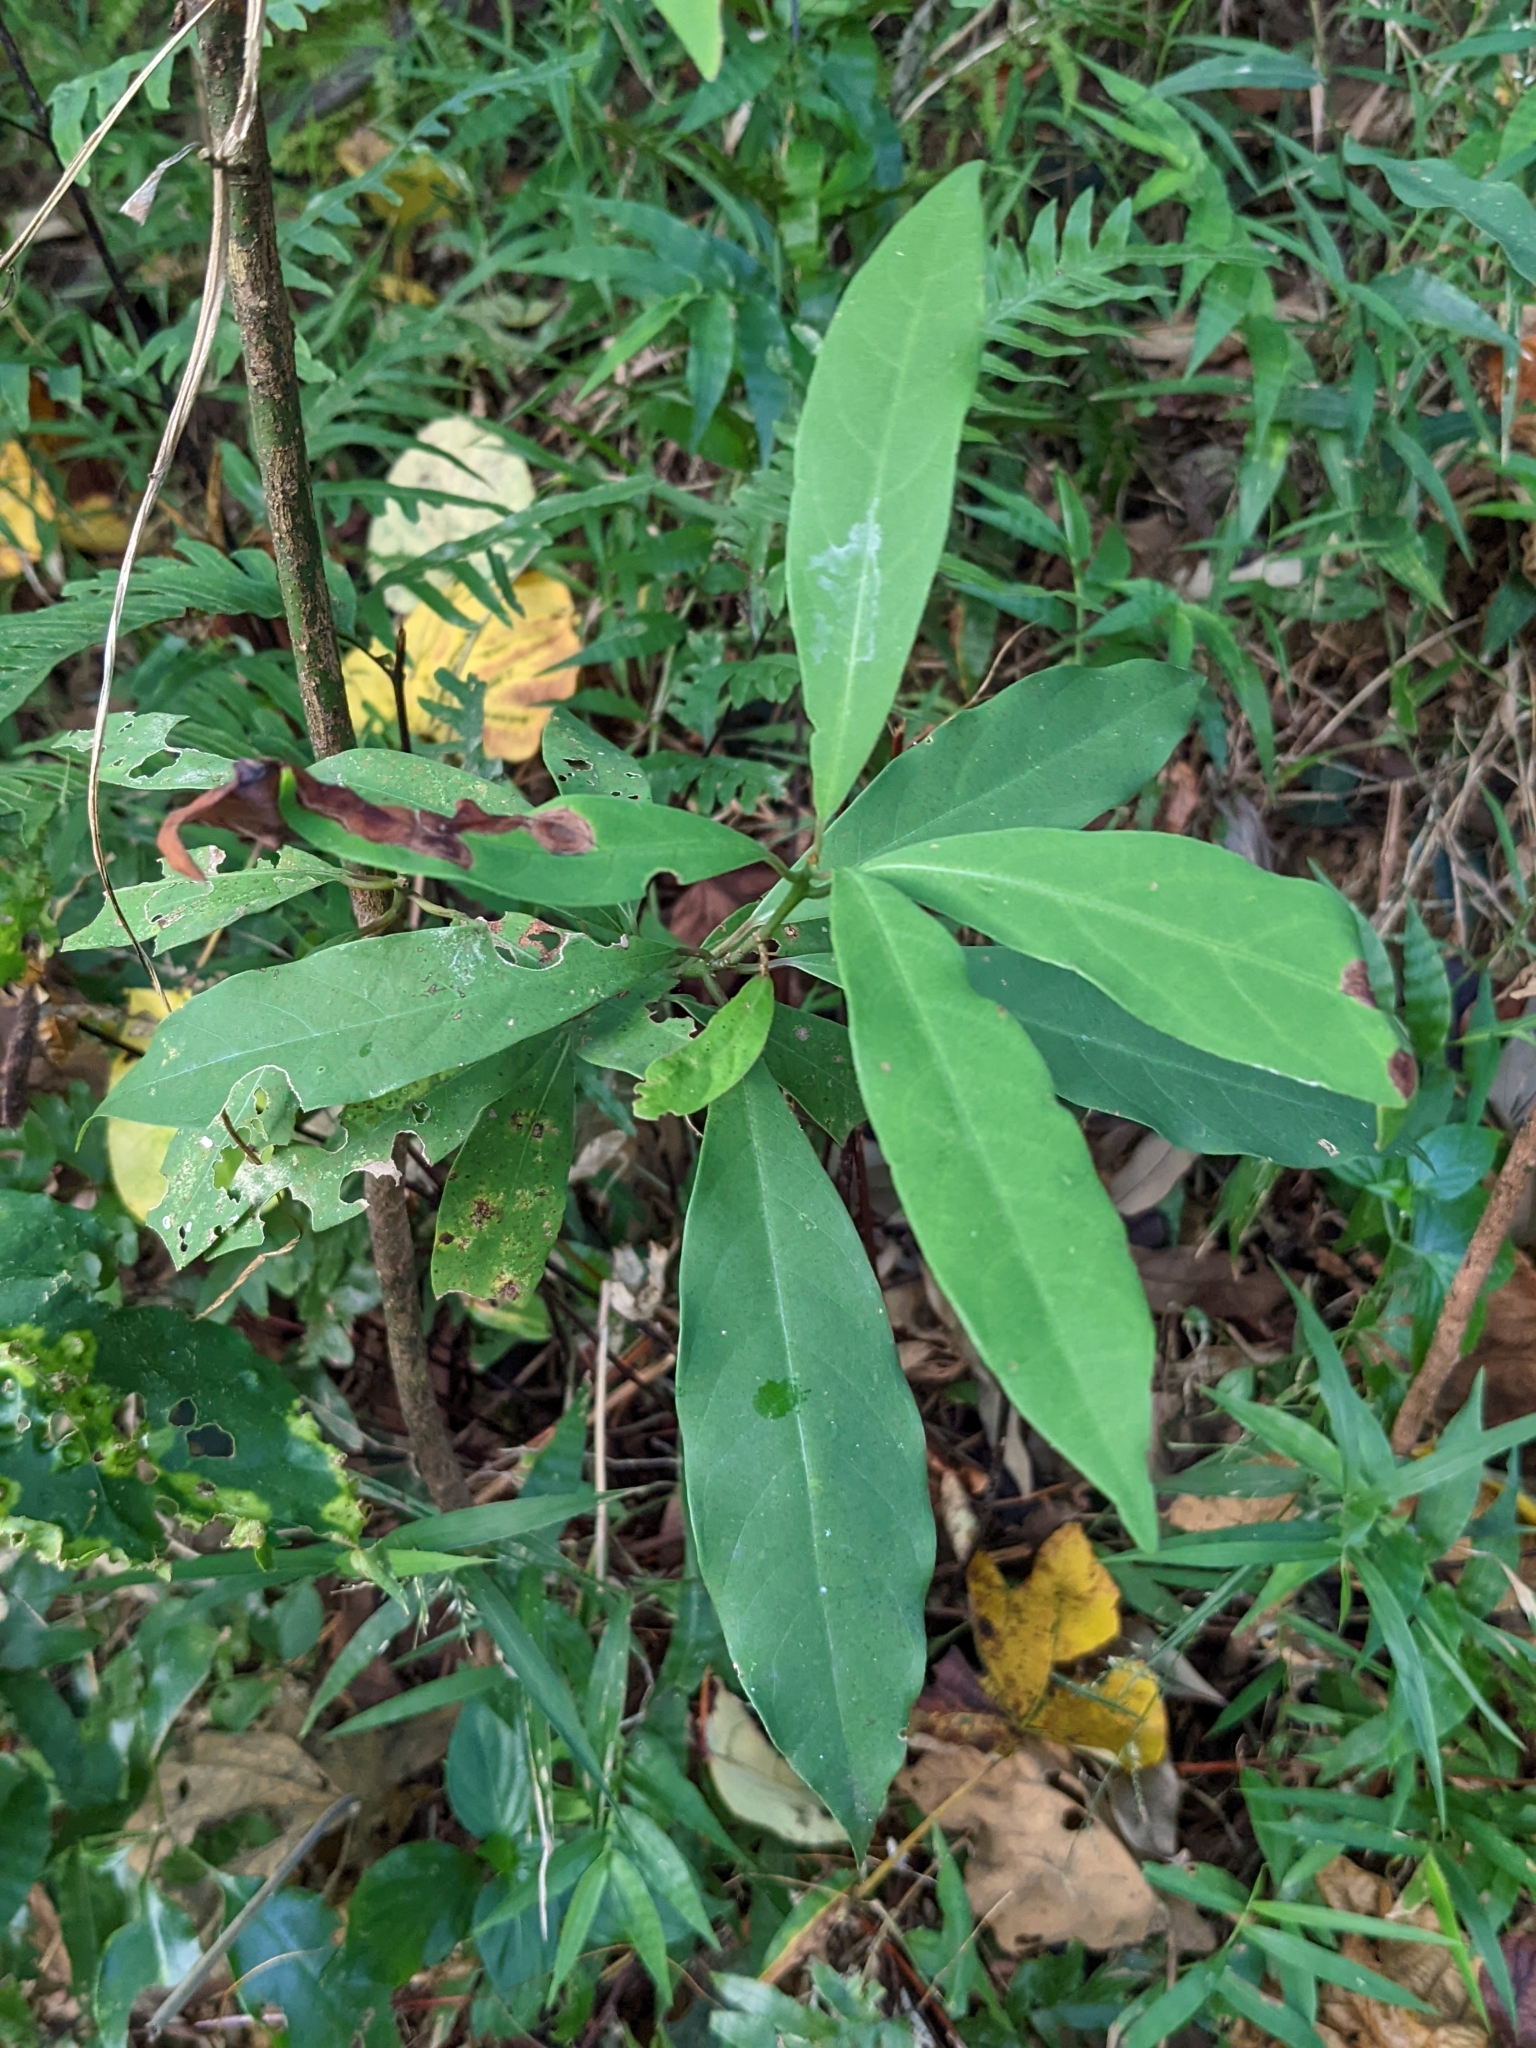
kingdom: Plantae
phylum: Tracheophyta
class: Magnoliopsida
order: Laurales
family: Lauraceae
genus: Machilus
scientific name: Machilus zuihoensis
